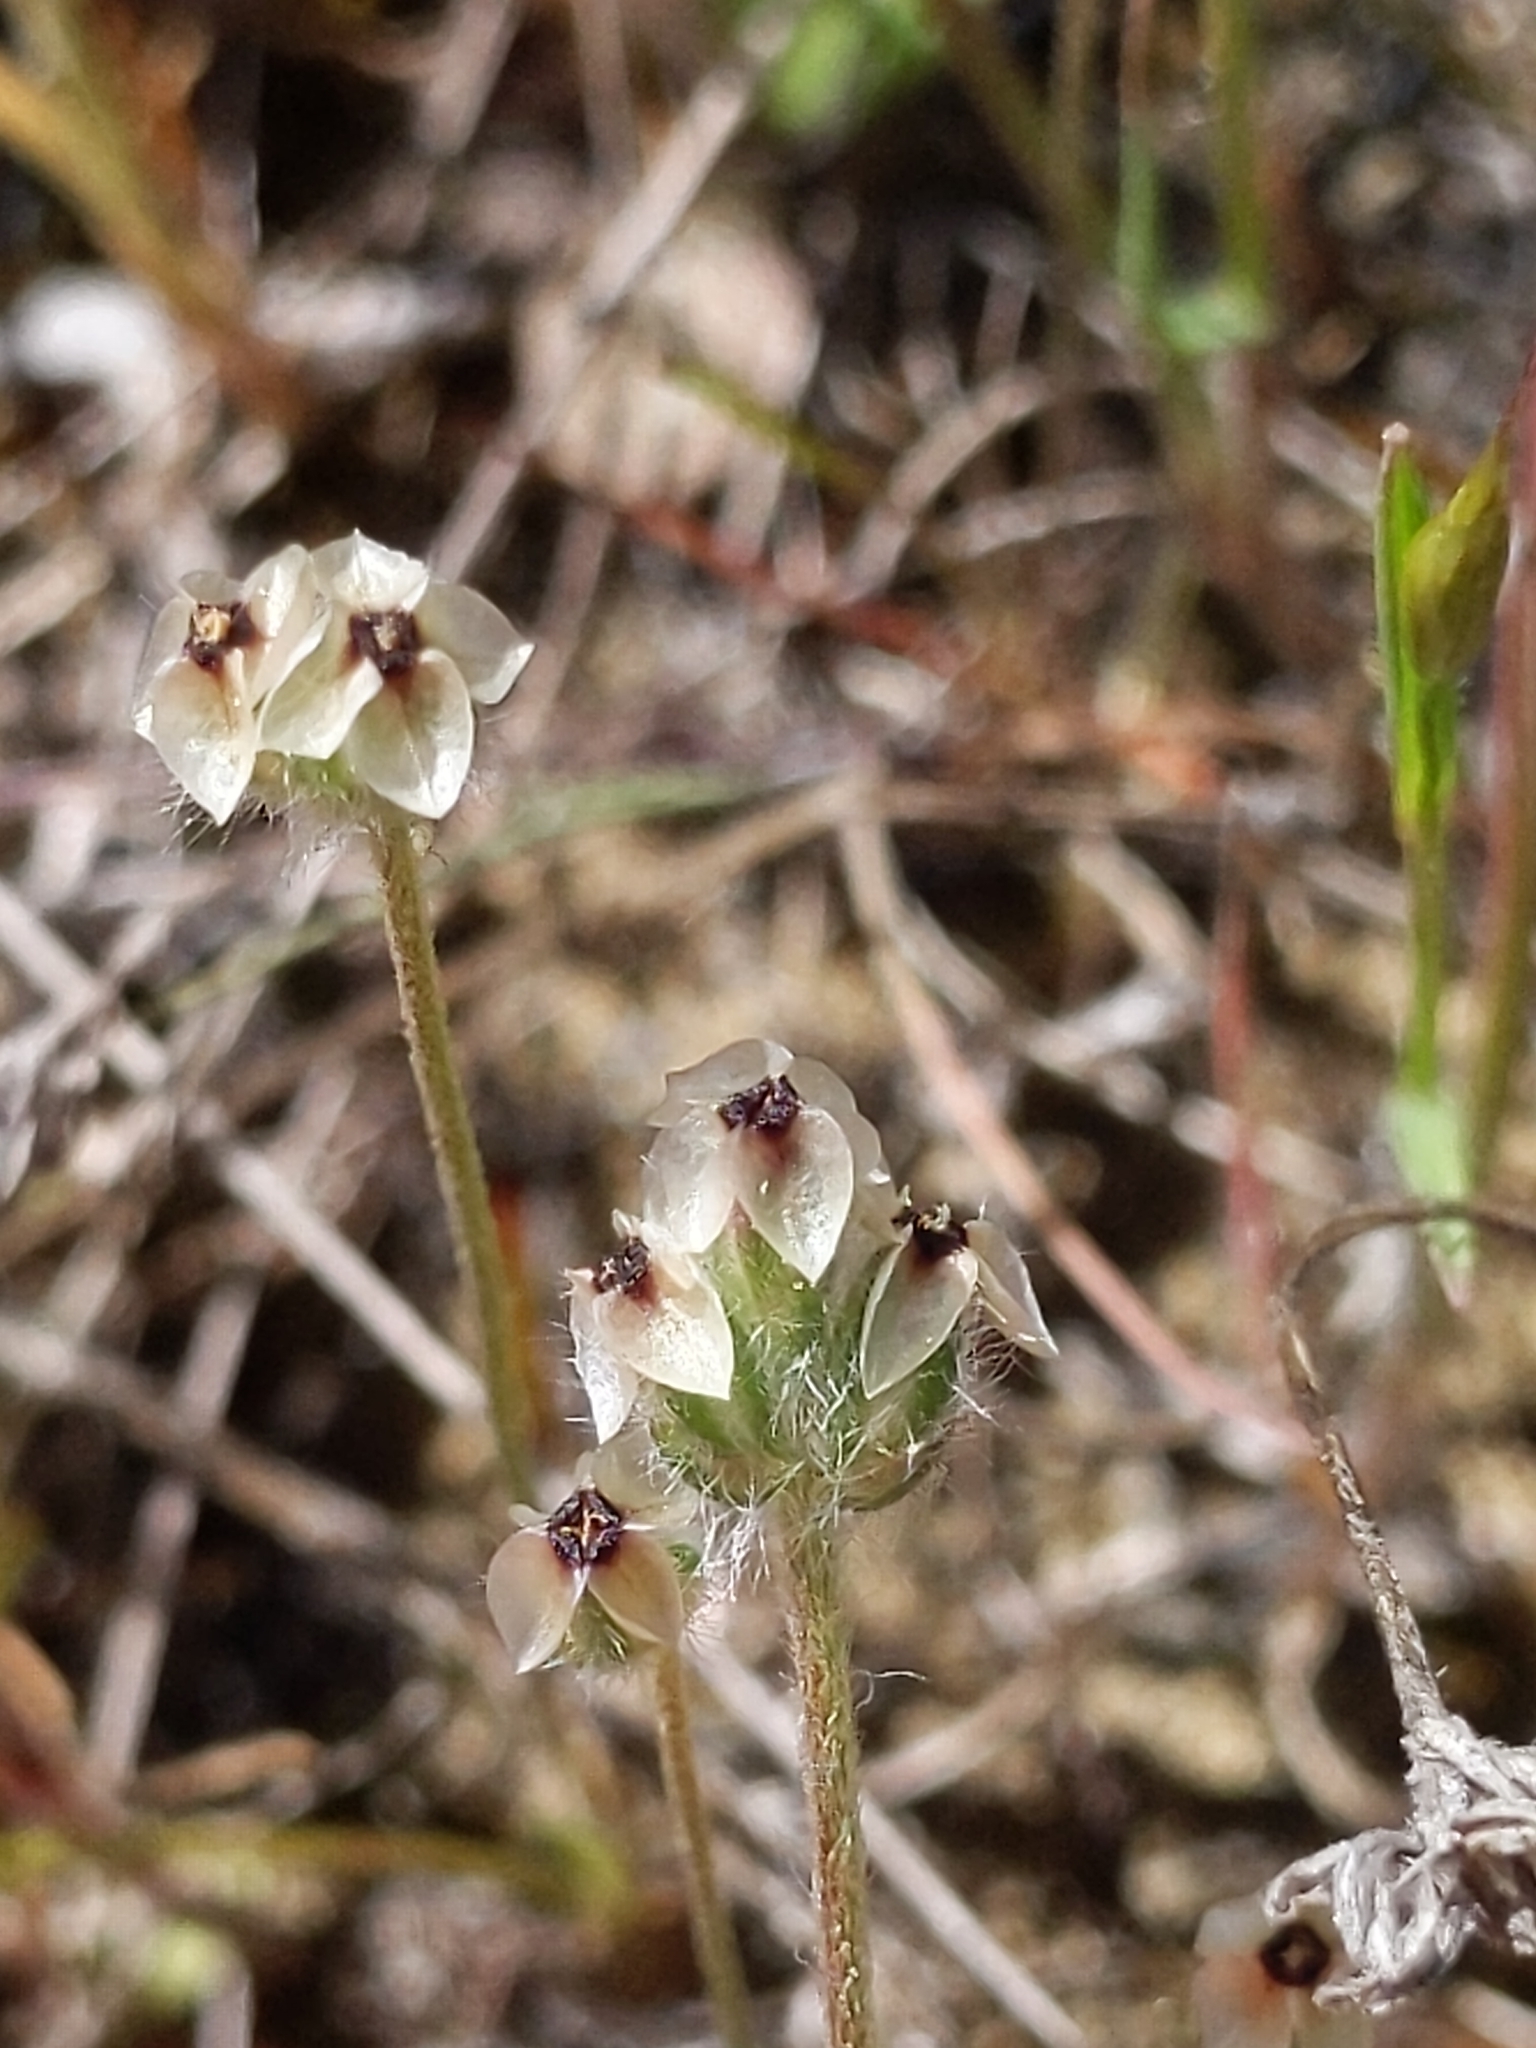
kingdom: Plantae
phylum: Tracheophyta
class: Magnoliopsida
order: Lamiales
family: Plantaginaceae
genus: Plantago
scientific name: Plantago erecta
